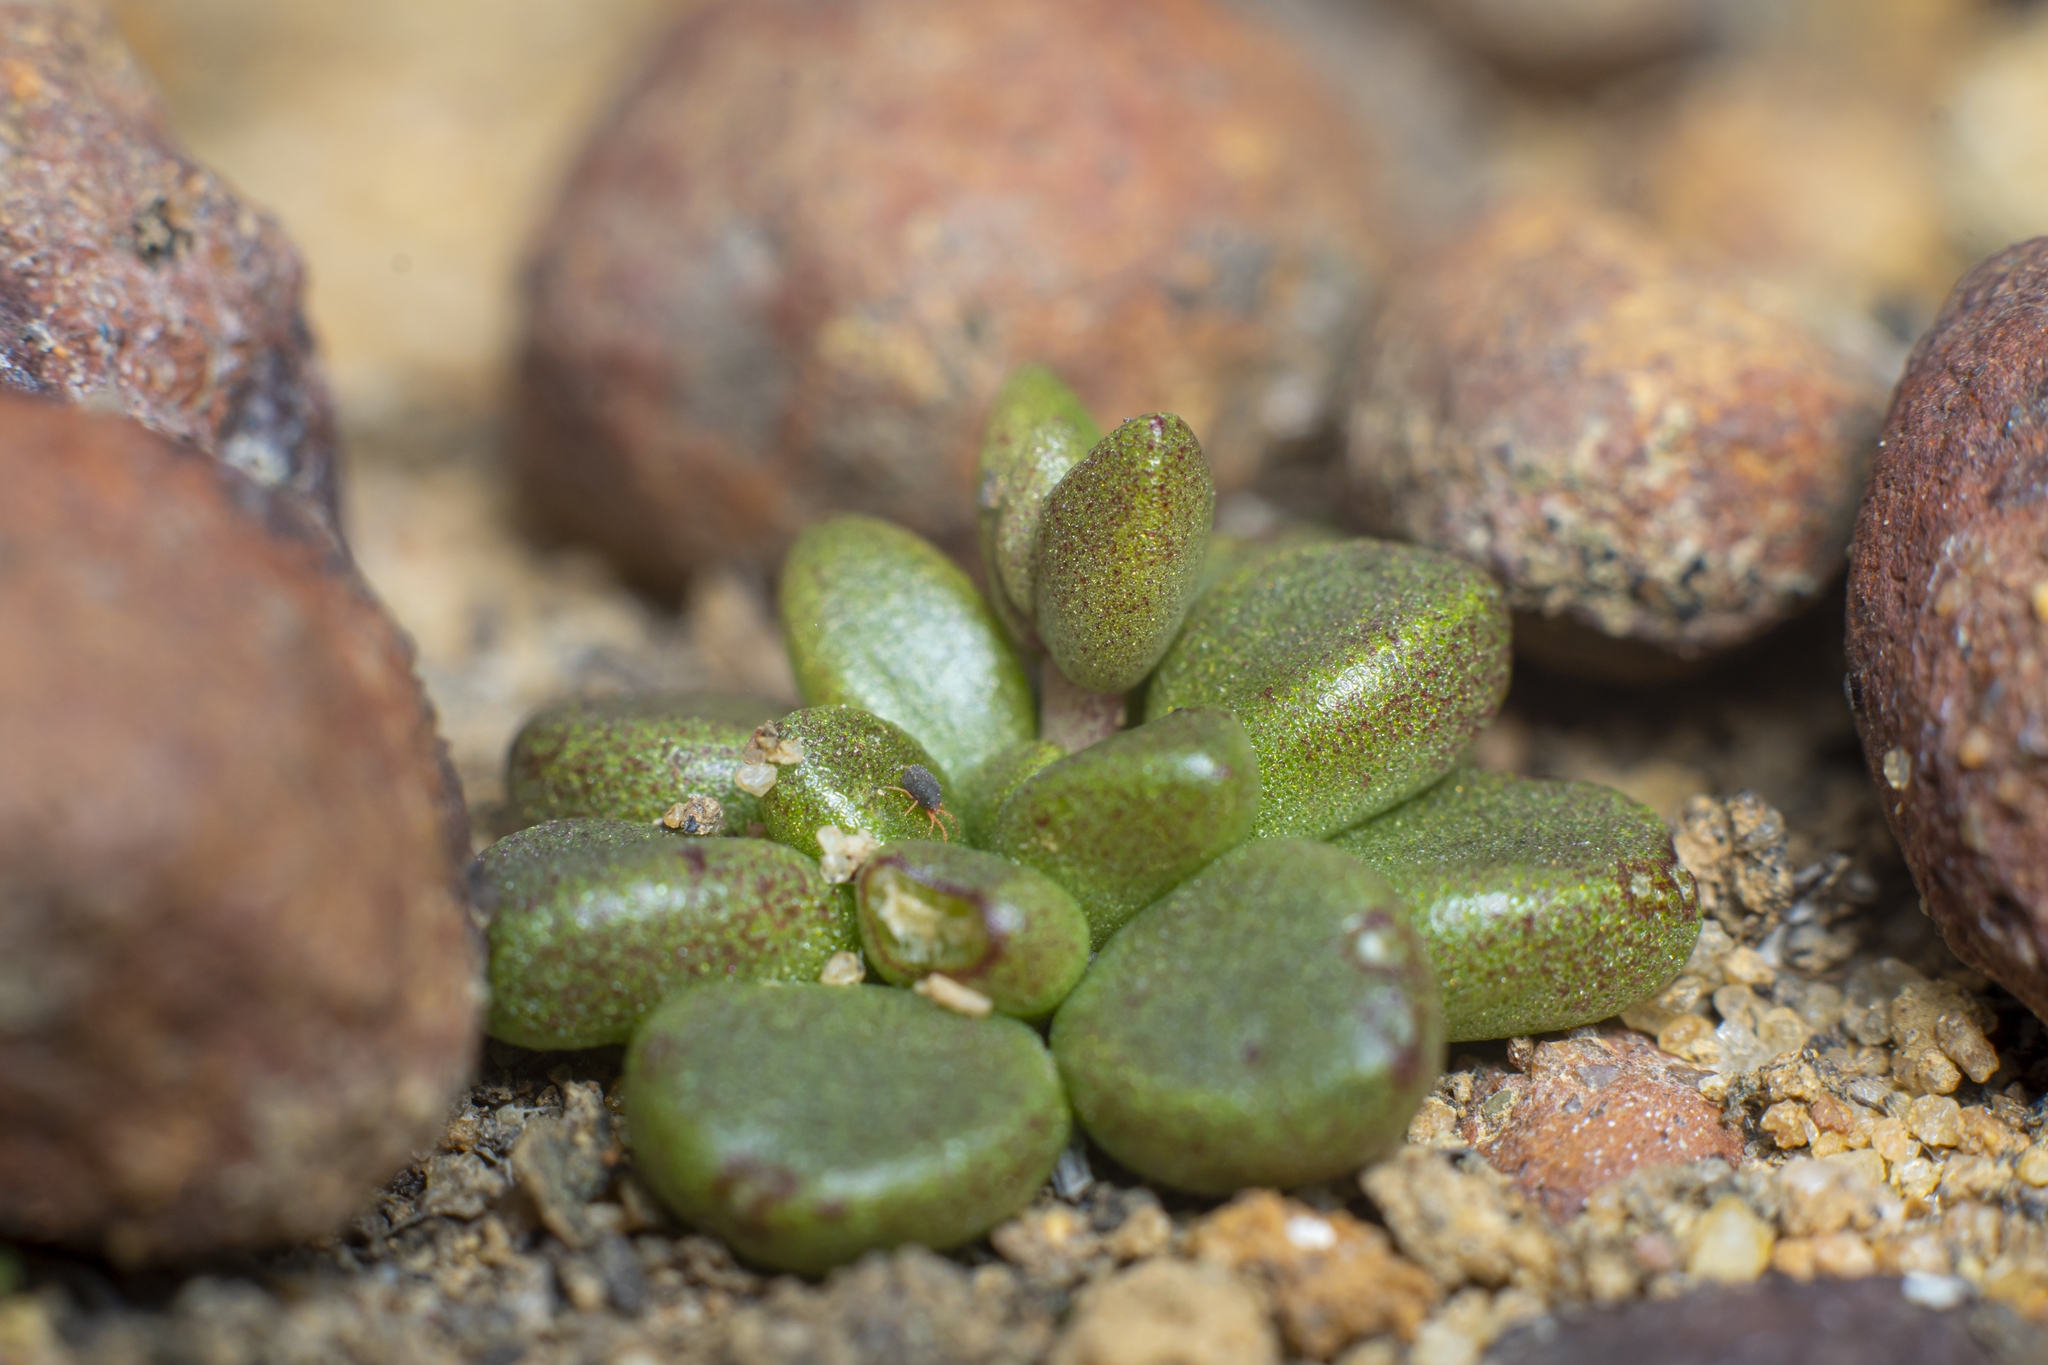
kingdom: Plantae
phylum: Tracheophyta
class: Magnoliopsida
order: Saxifragales
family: Crassulaceae
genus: Dudleya
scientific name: Dudleya blochmaniae
